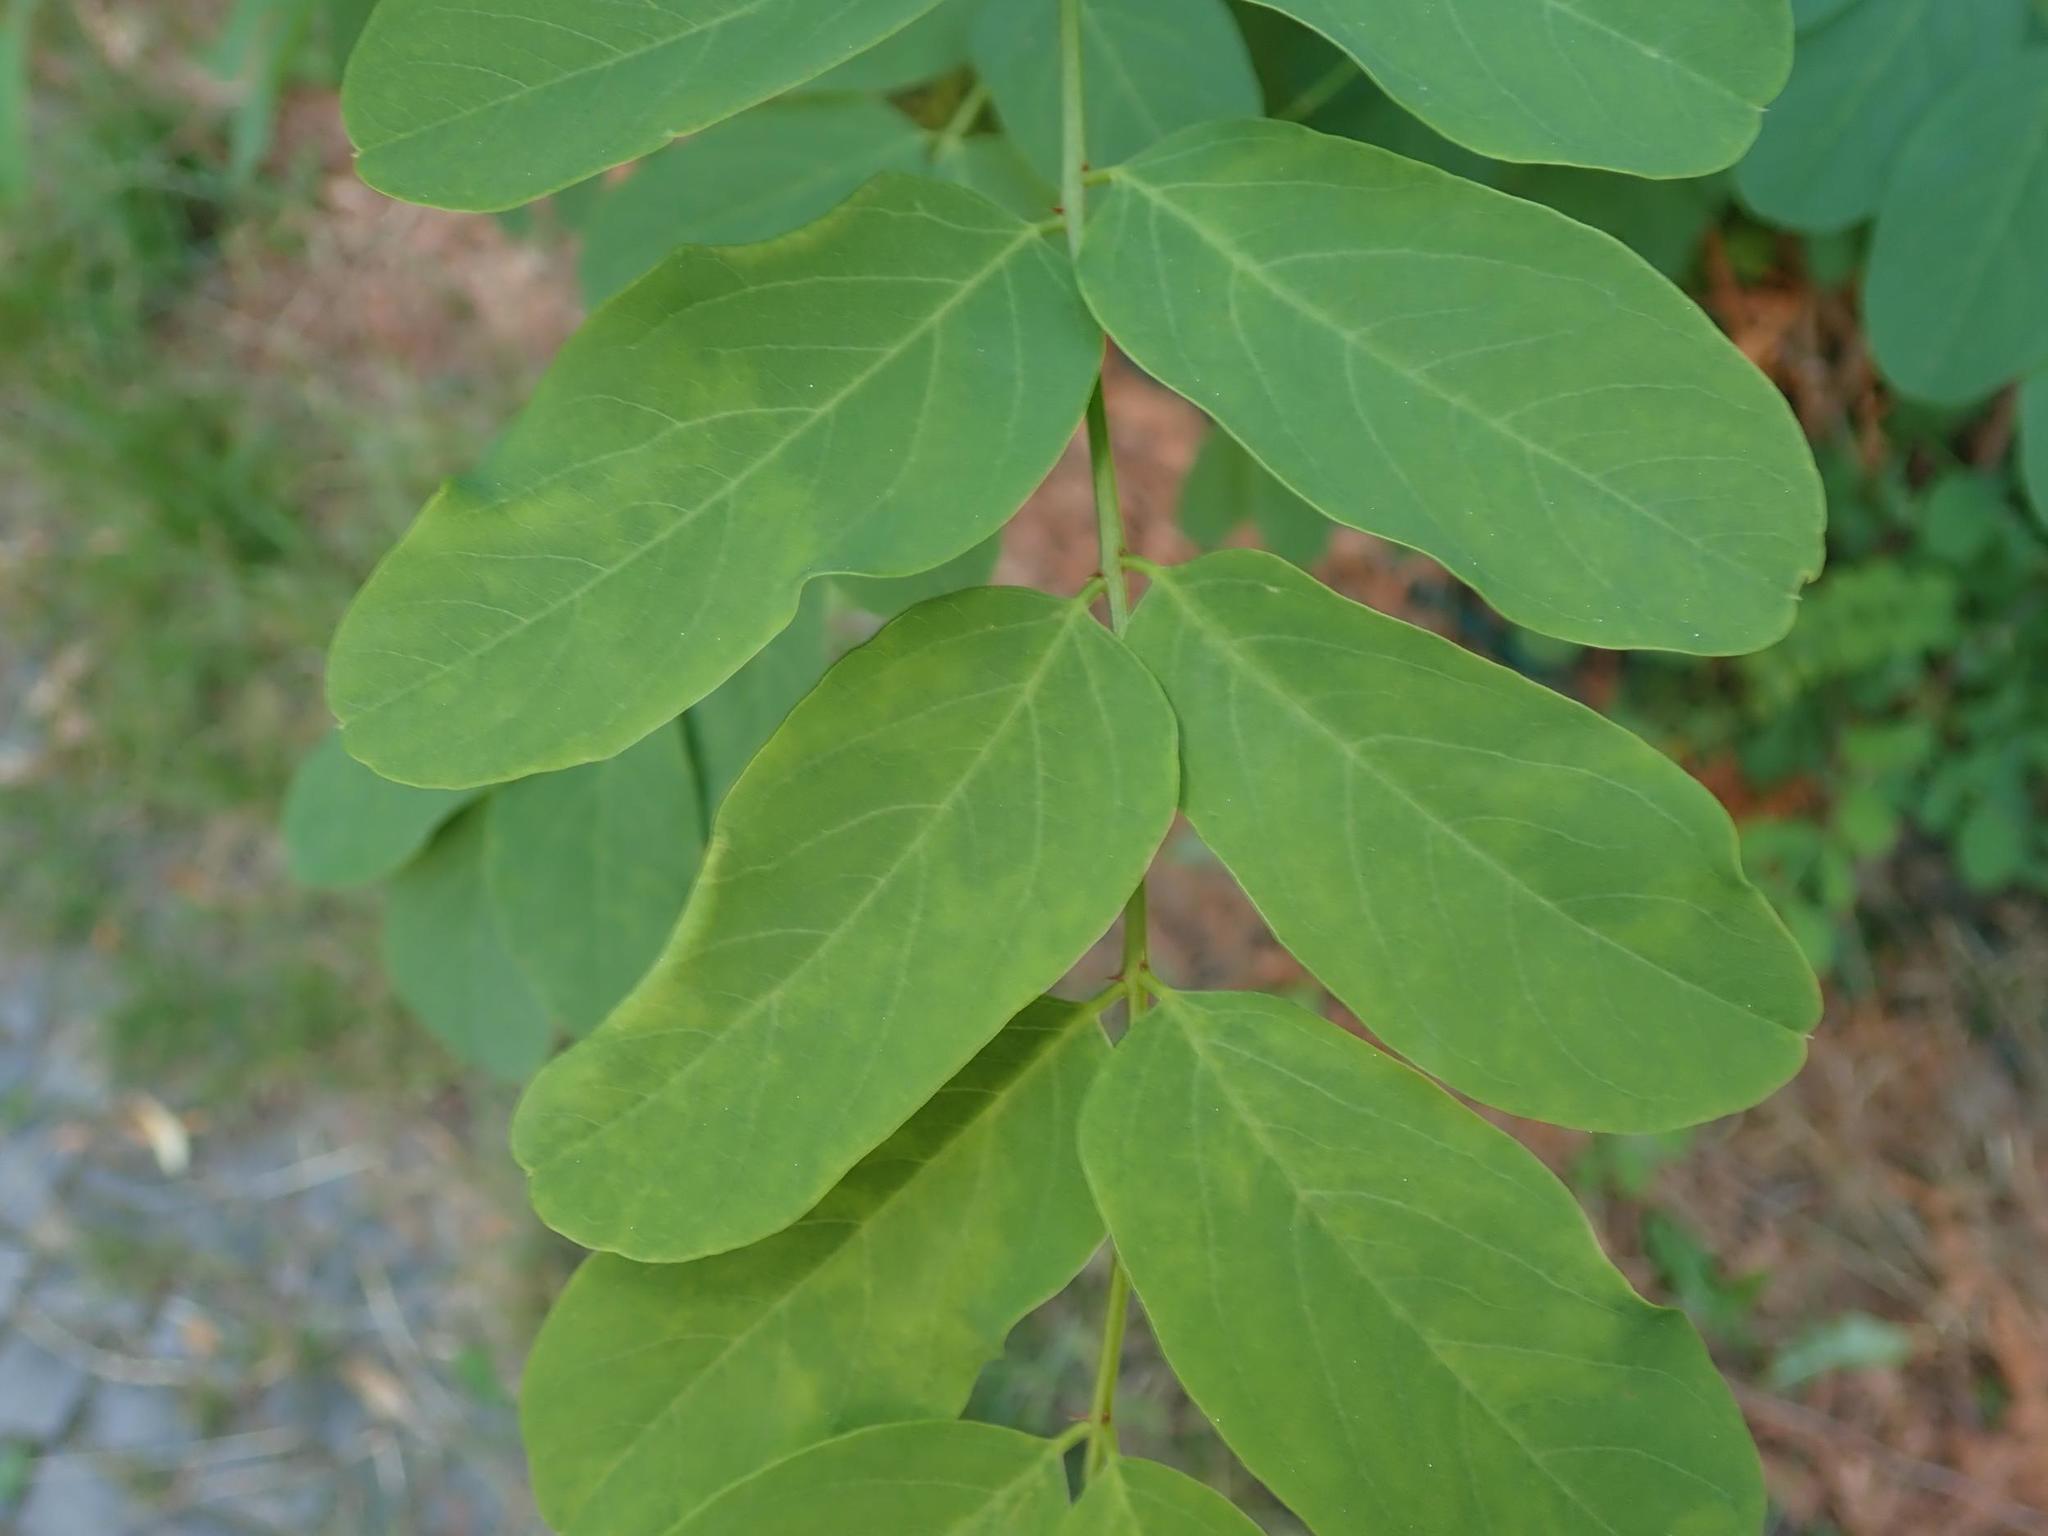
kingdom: Plantae
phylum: Tracheophyta
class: Magnoliopsida
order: Fabales
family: Fabaceae
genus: Robinia
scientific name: Robinia pseudoacacia
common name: Black locust
